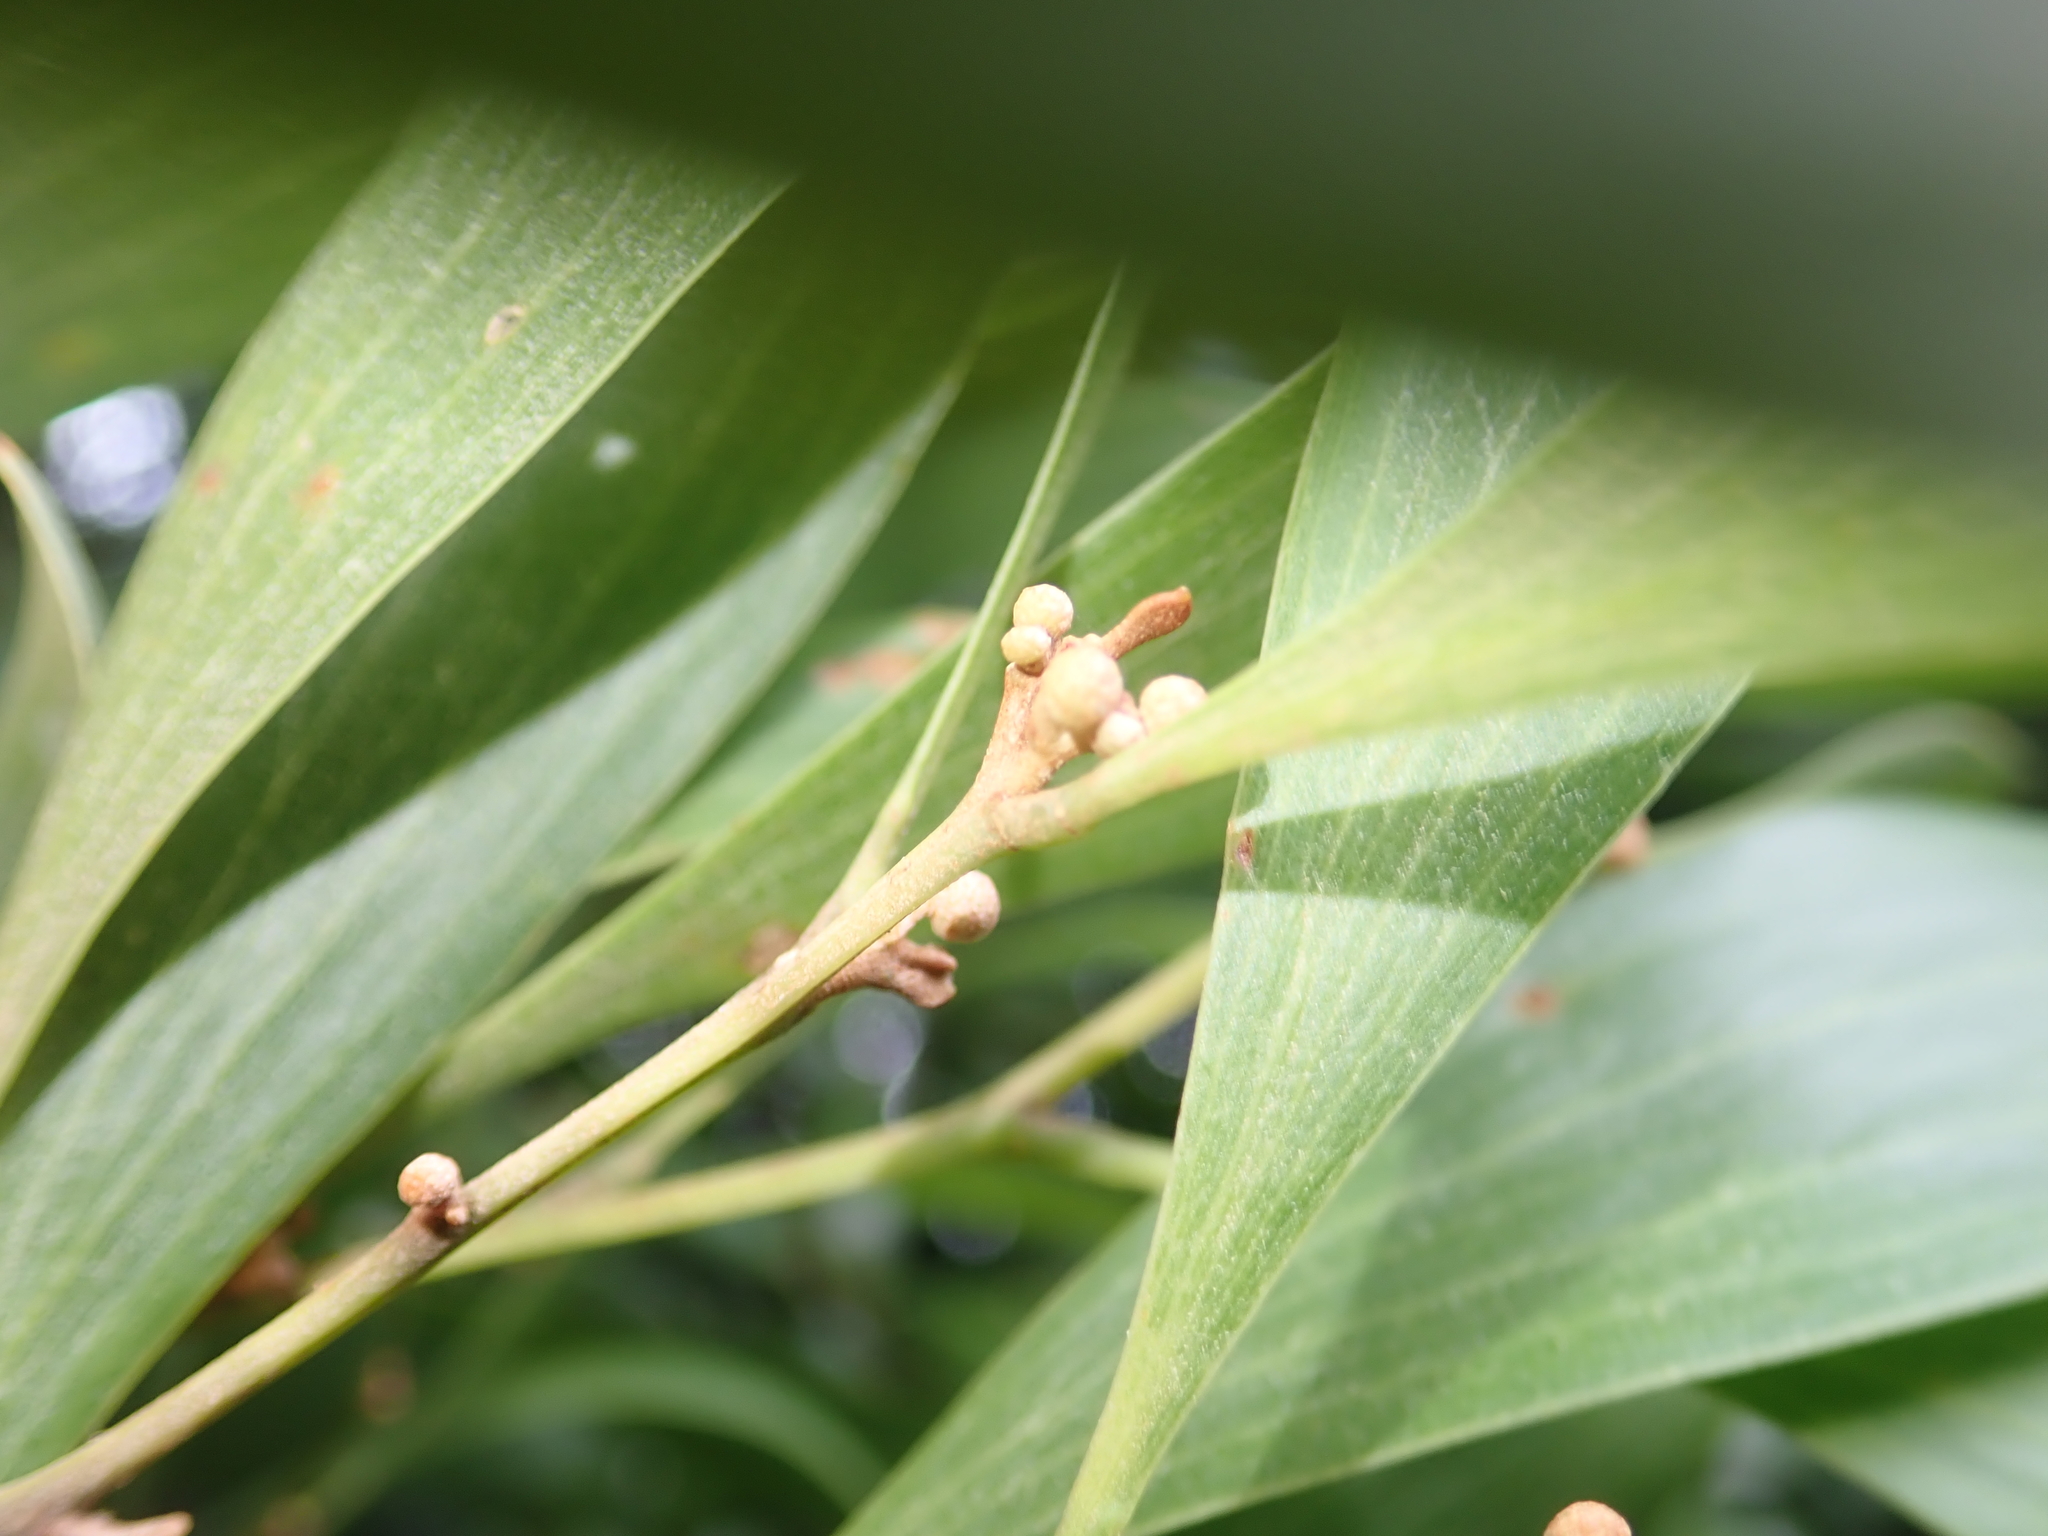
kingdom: Plantae
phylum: Tracheophyta
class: Magnoliopsida
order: Fabales
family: Fabaceae
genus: Acacia
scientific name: Acacia melanoxylon
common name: Blackwood
